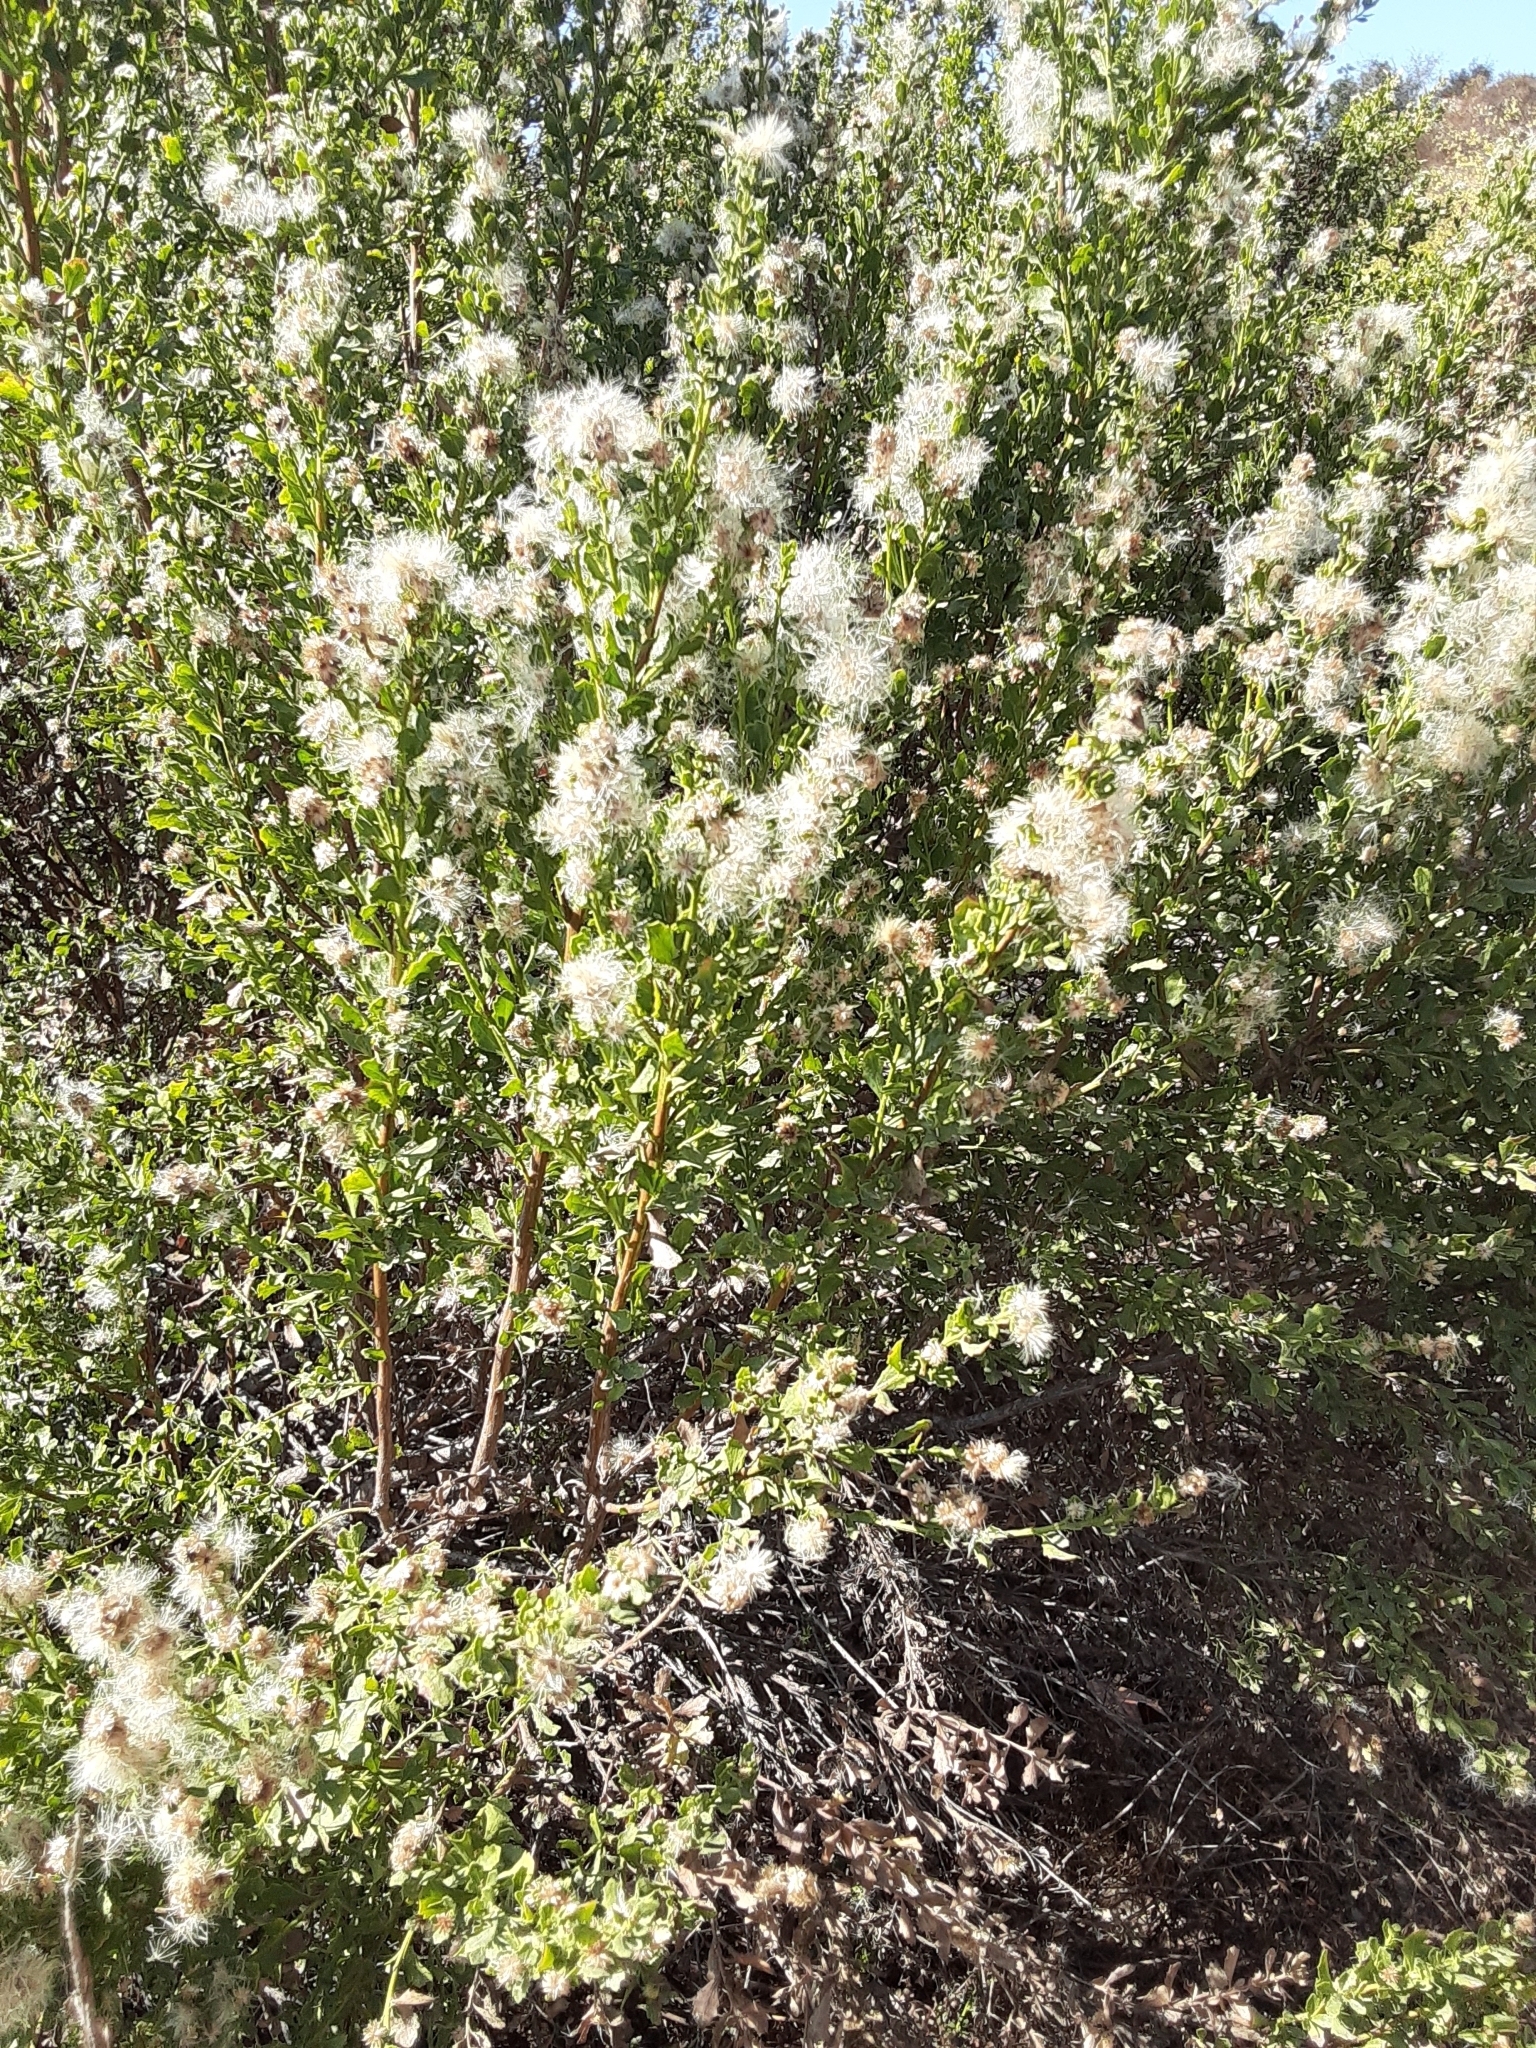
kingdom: Plantae
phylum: Tracheophyta
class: Magnoliopsida
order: Asterales
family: Asteraceae
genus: Baccharis
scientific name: Baccharis pilularis
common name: Coyotebrush
